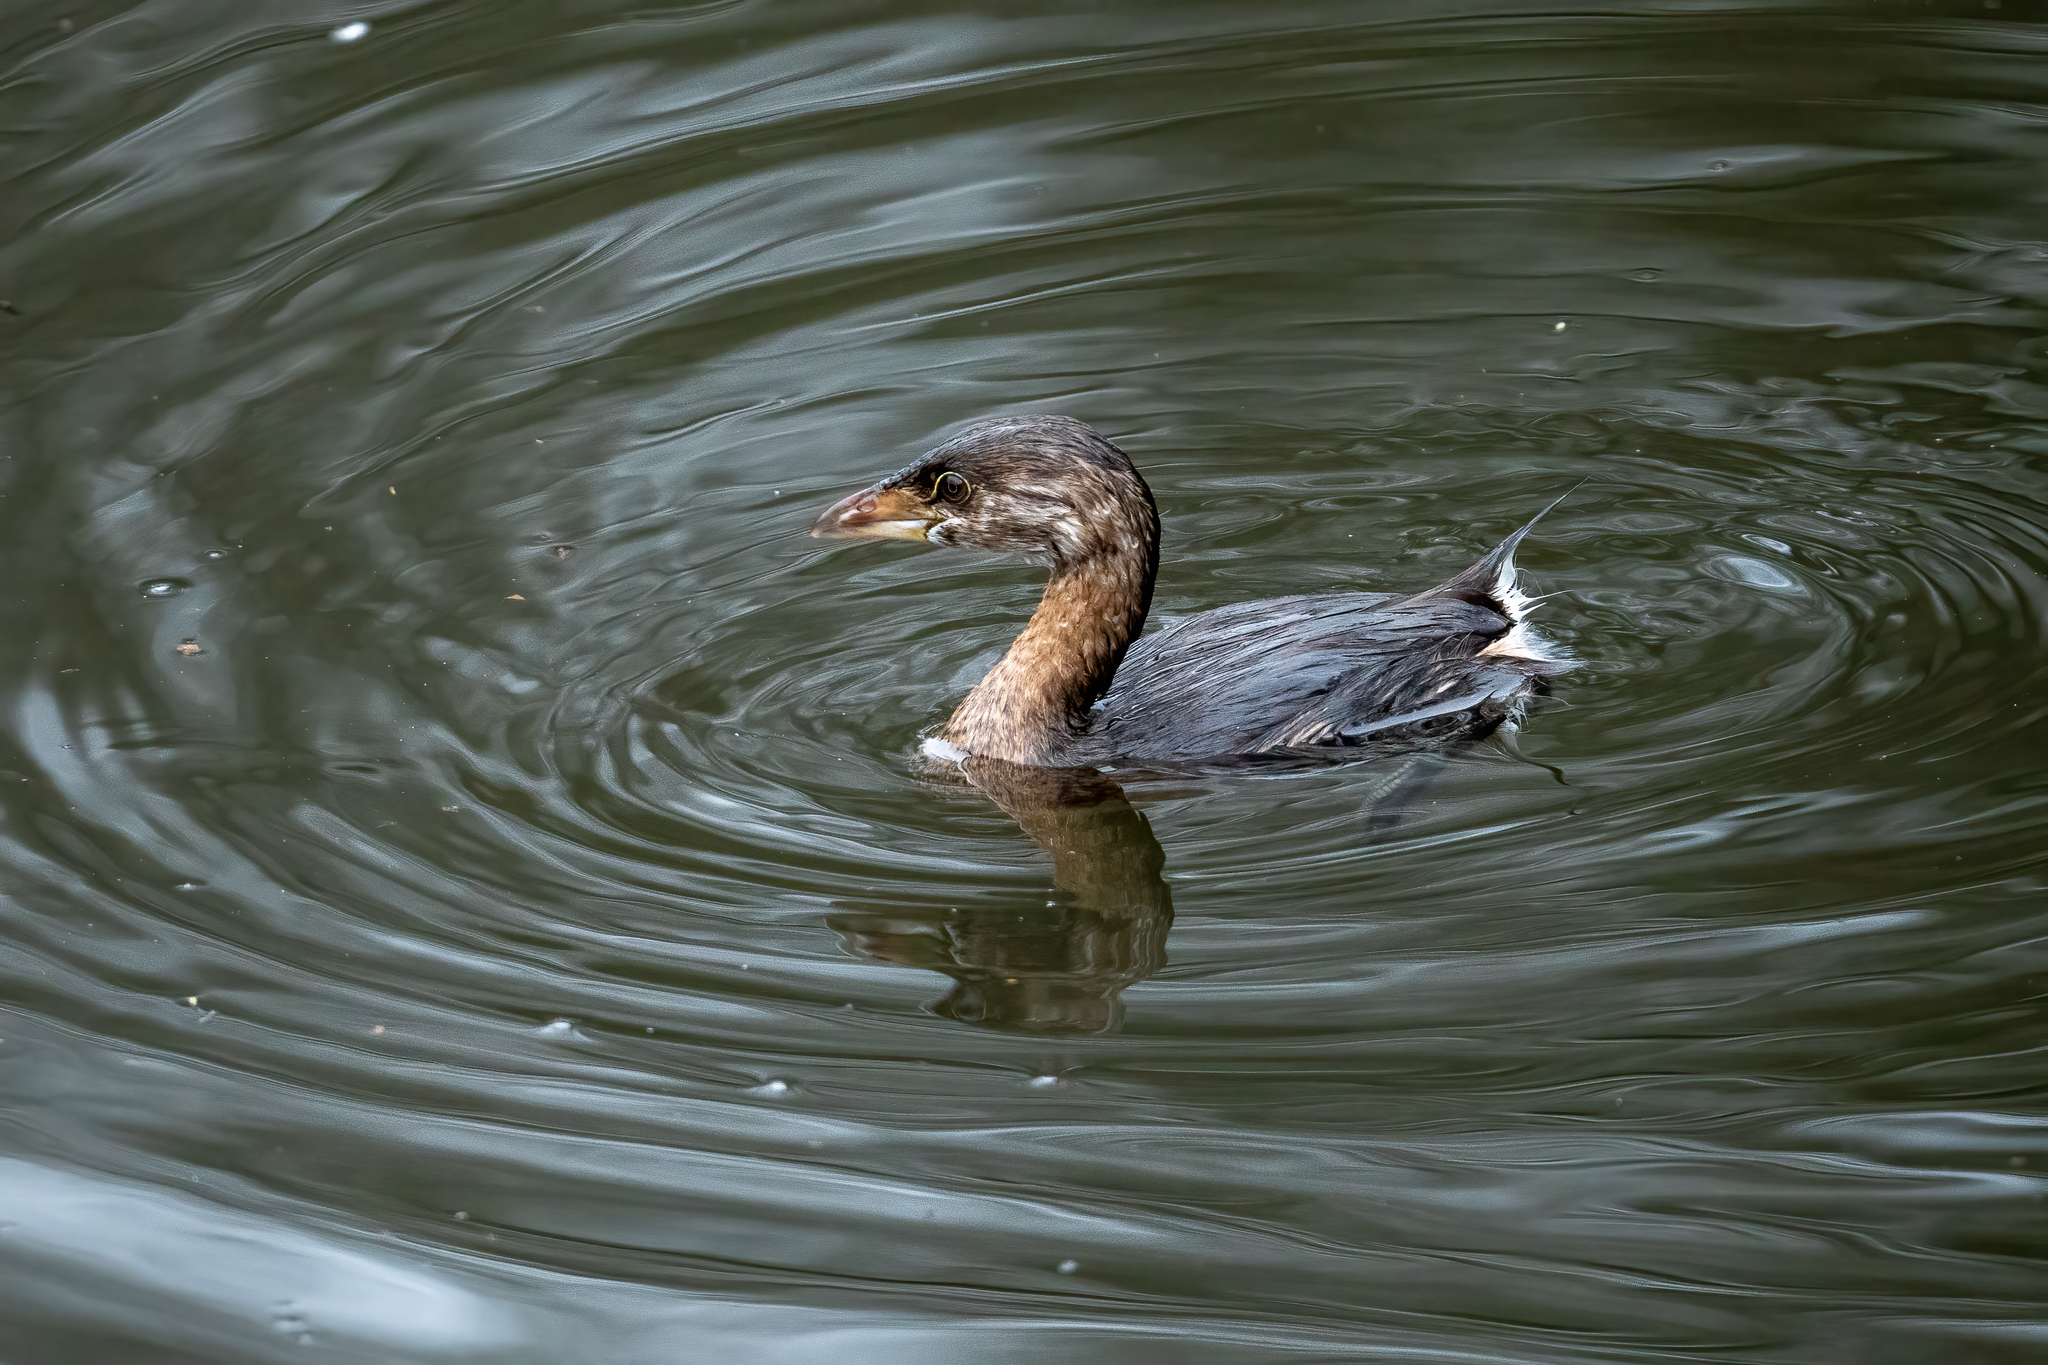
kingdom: Animalia
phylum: Chordata
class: Aves
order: Podicipediformes
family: Podicipedidae
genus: Podilymbus
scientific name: Podilymbus podiceps
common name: Pied-billed grebe
